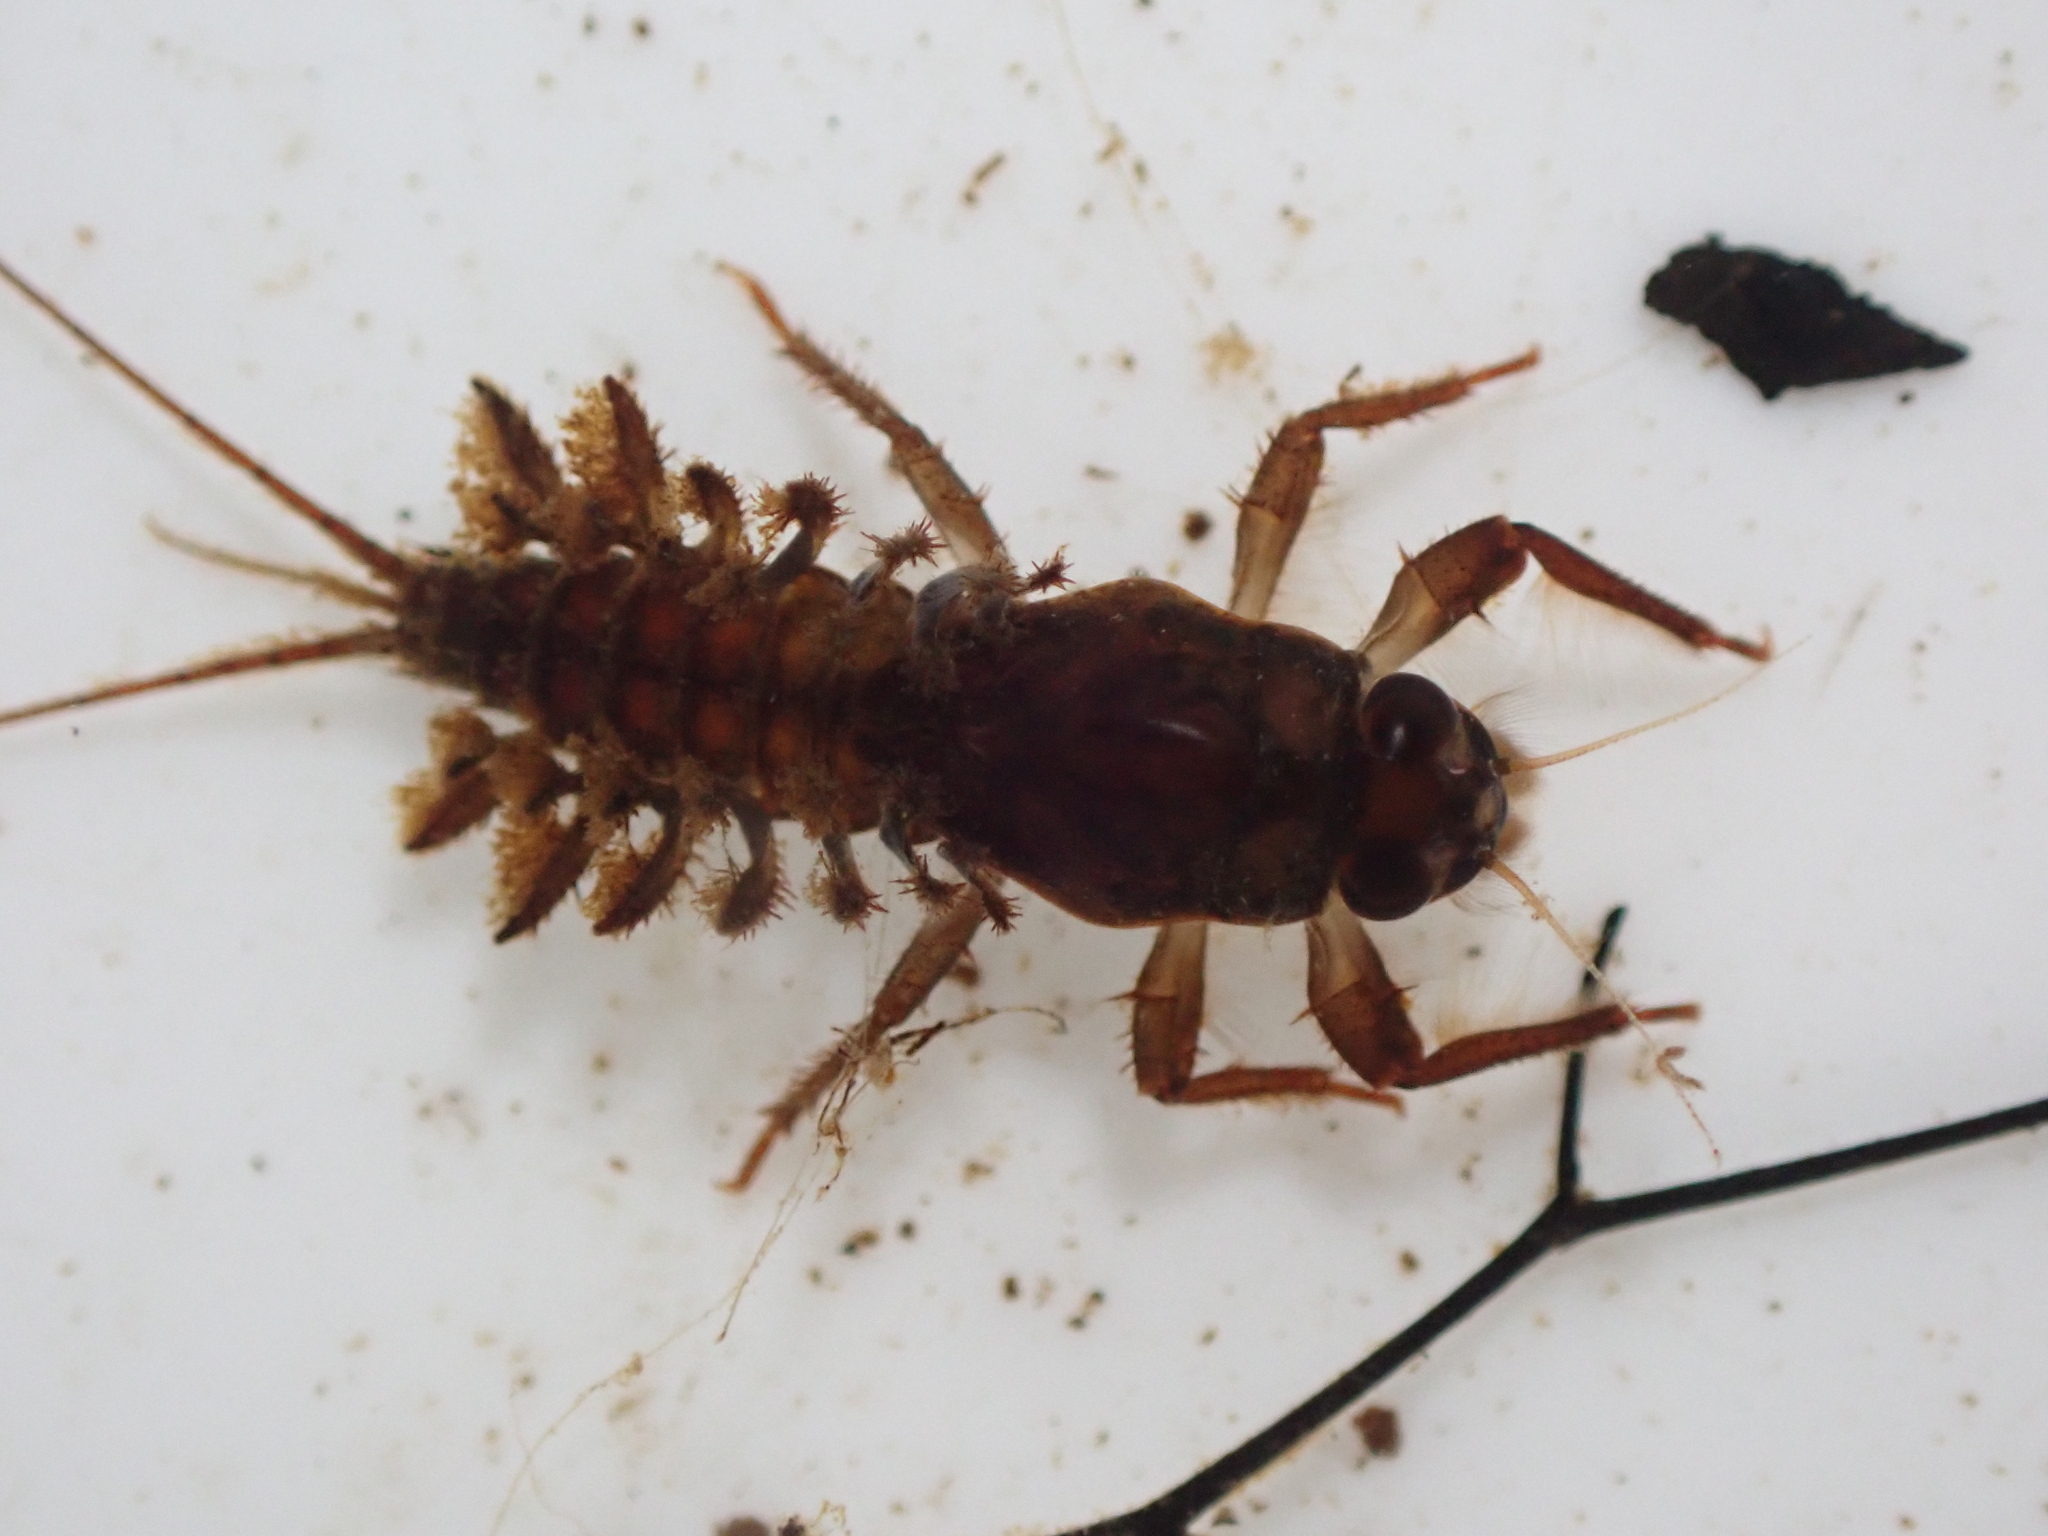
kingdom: Animalia
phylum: Arthropoda
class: Insecta
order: Ephemeroptera
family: Coloburiscidae
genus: Coloburiscus
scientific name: Coloburiscus humeralis
